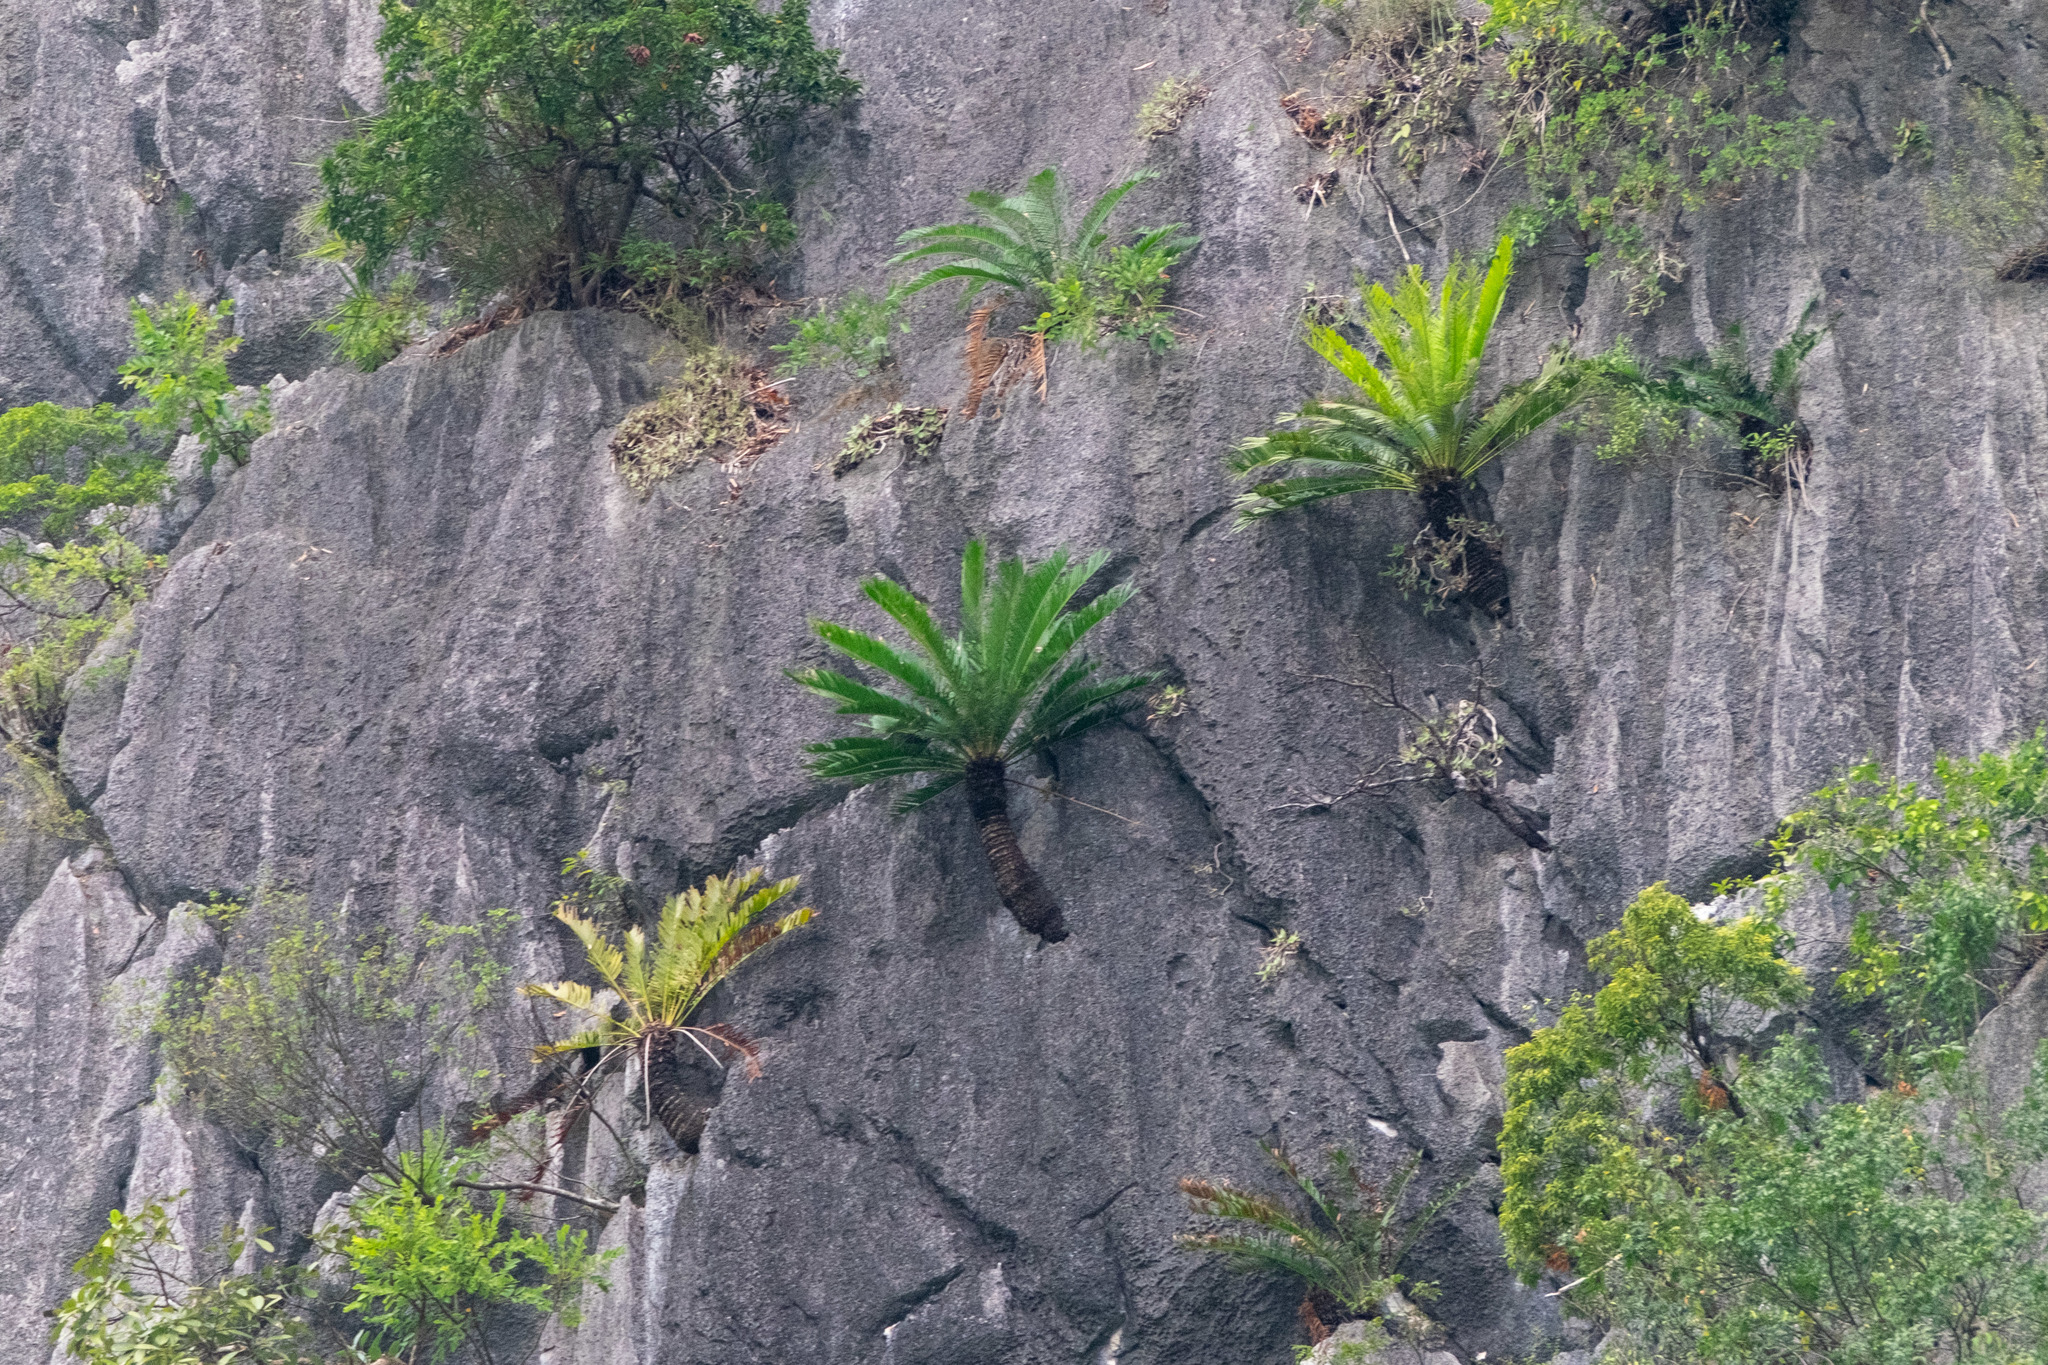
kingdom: Plantae
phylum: Tracheophyta
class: Cycadopsida
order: Cycadales
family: Cycadaceae
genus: Cycas
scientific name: Cycas tropophylla
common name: Ha long cycad
